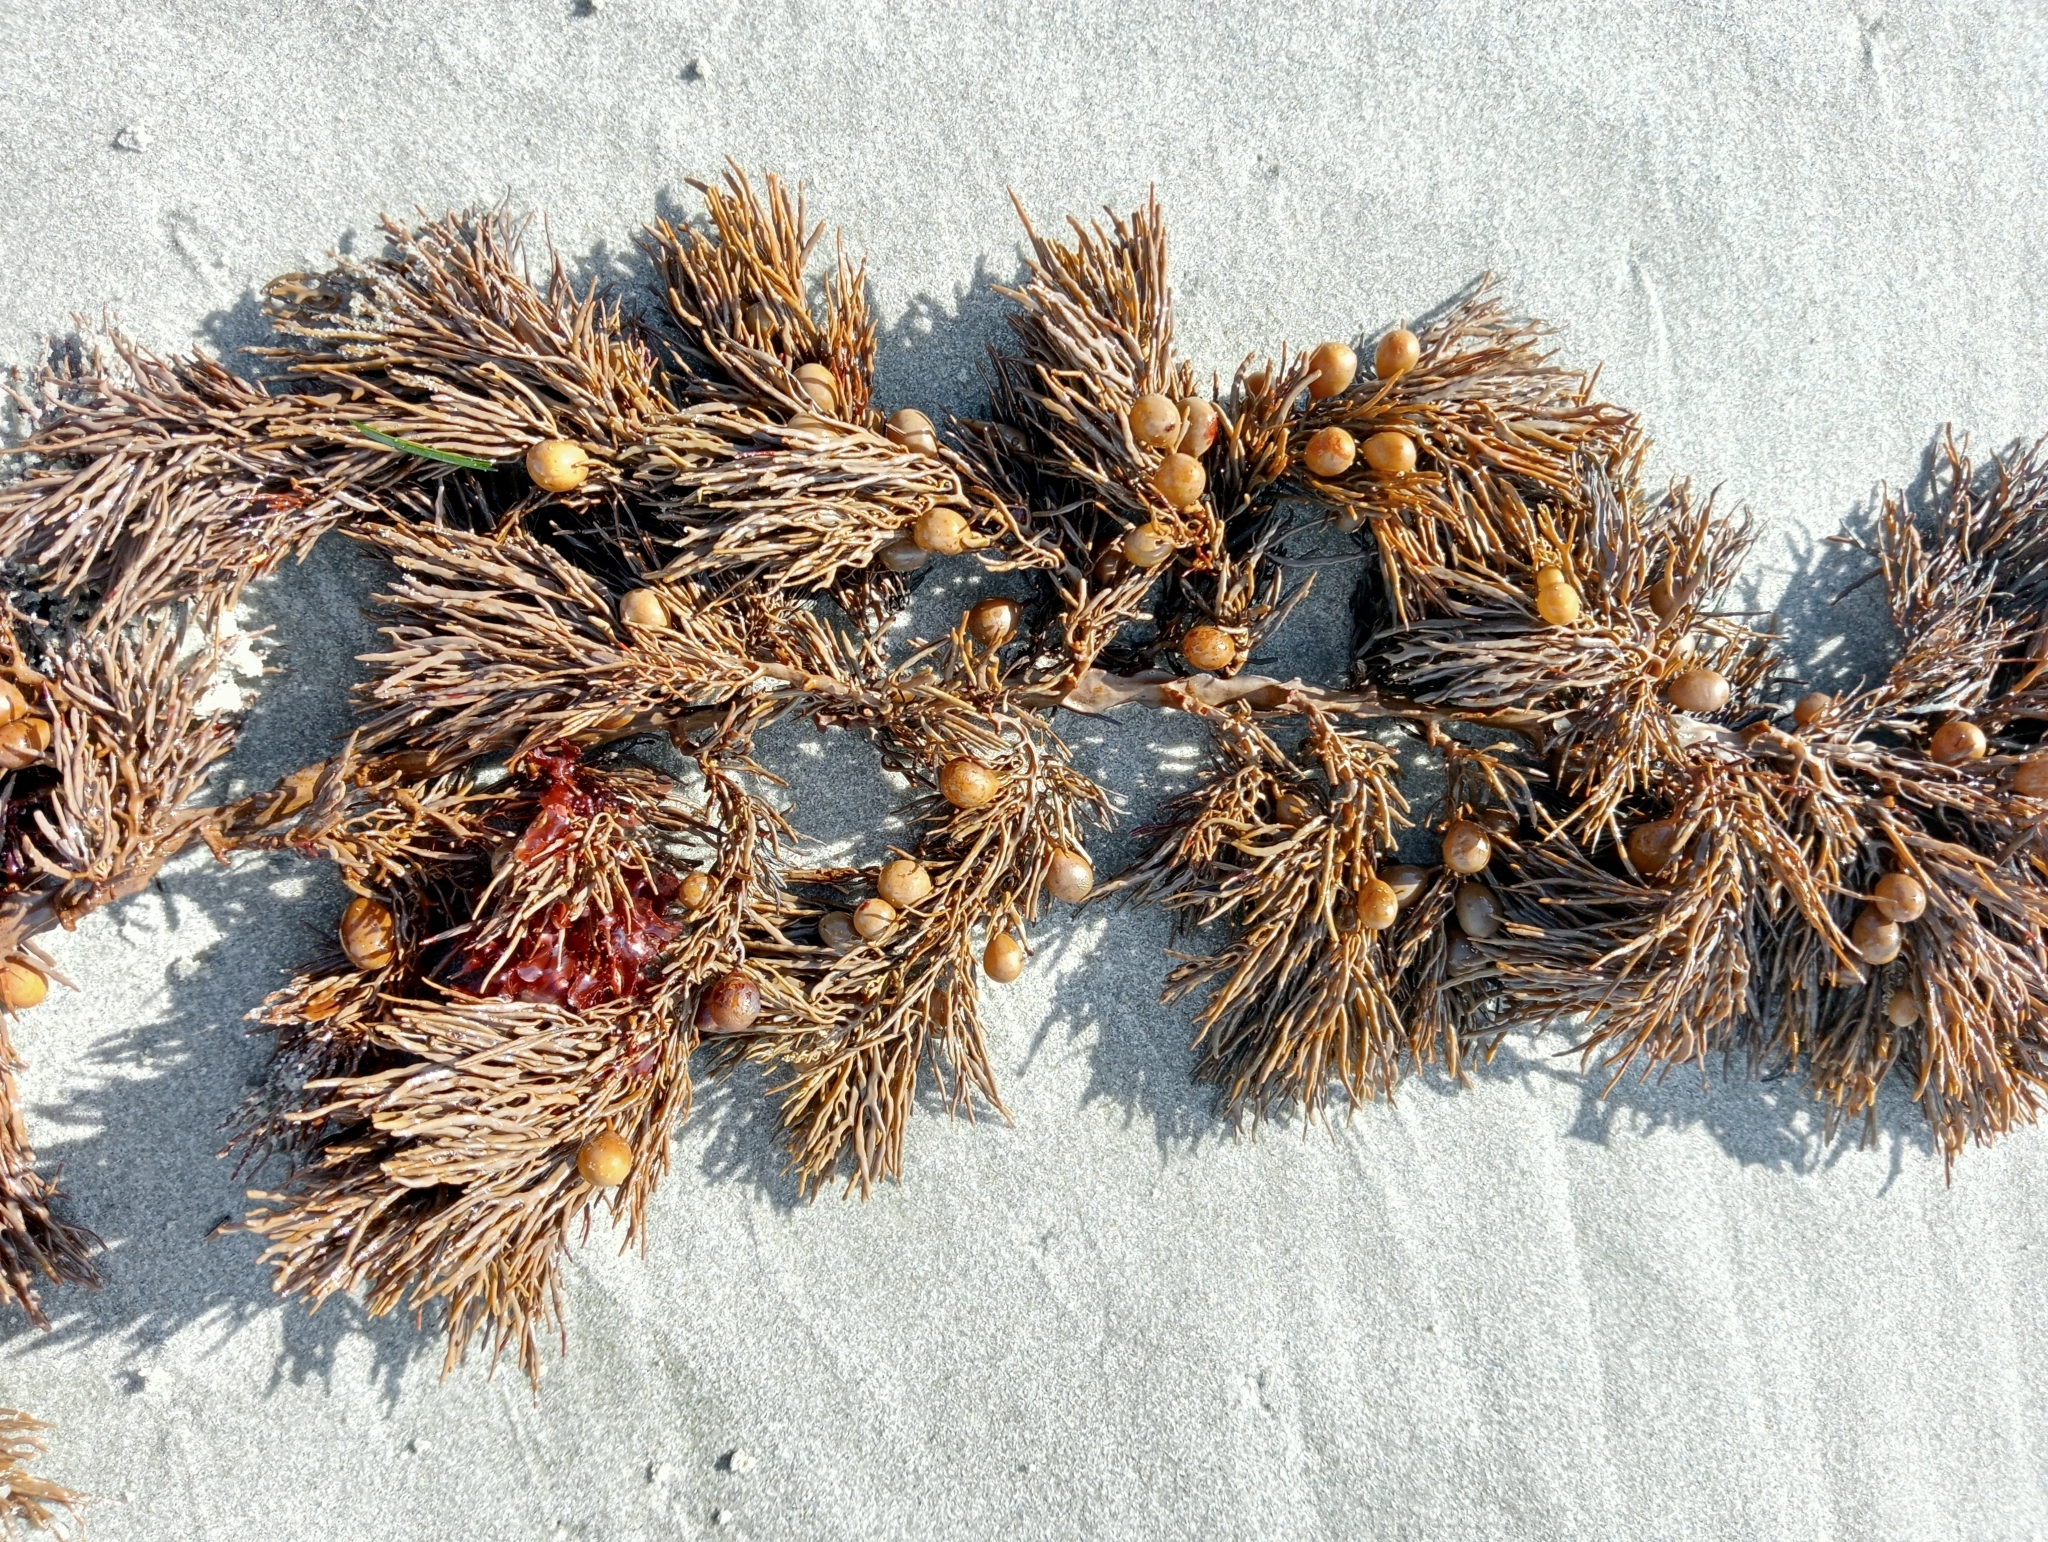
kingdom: Chromista
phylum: Ochrophyta
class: Phaeophyceae
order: Fucales
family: Sargassaceae
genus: Cystophora
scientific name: Cystophora retroflexa
